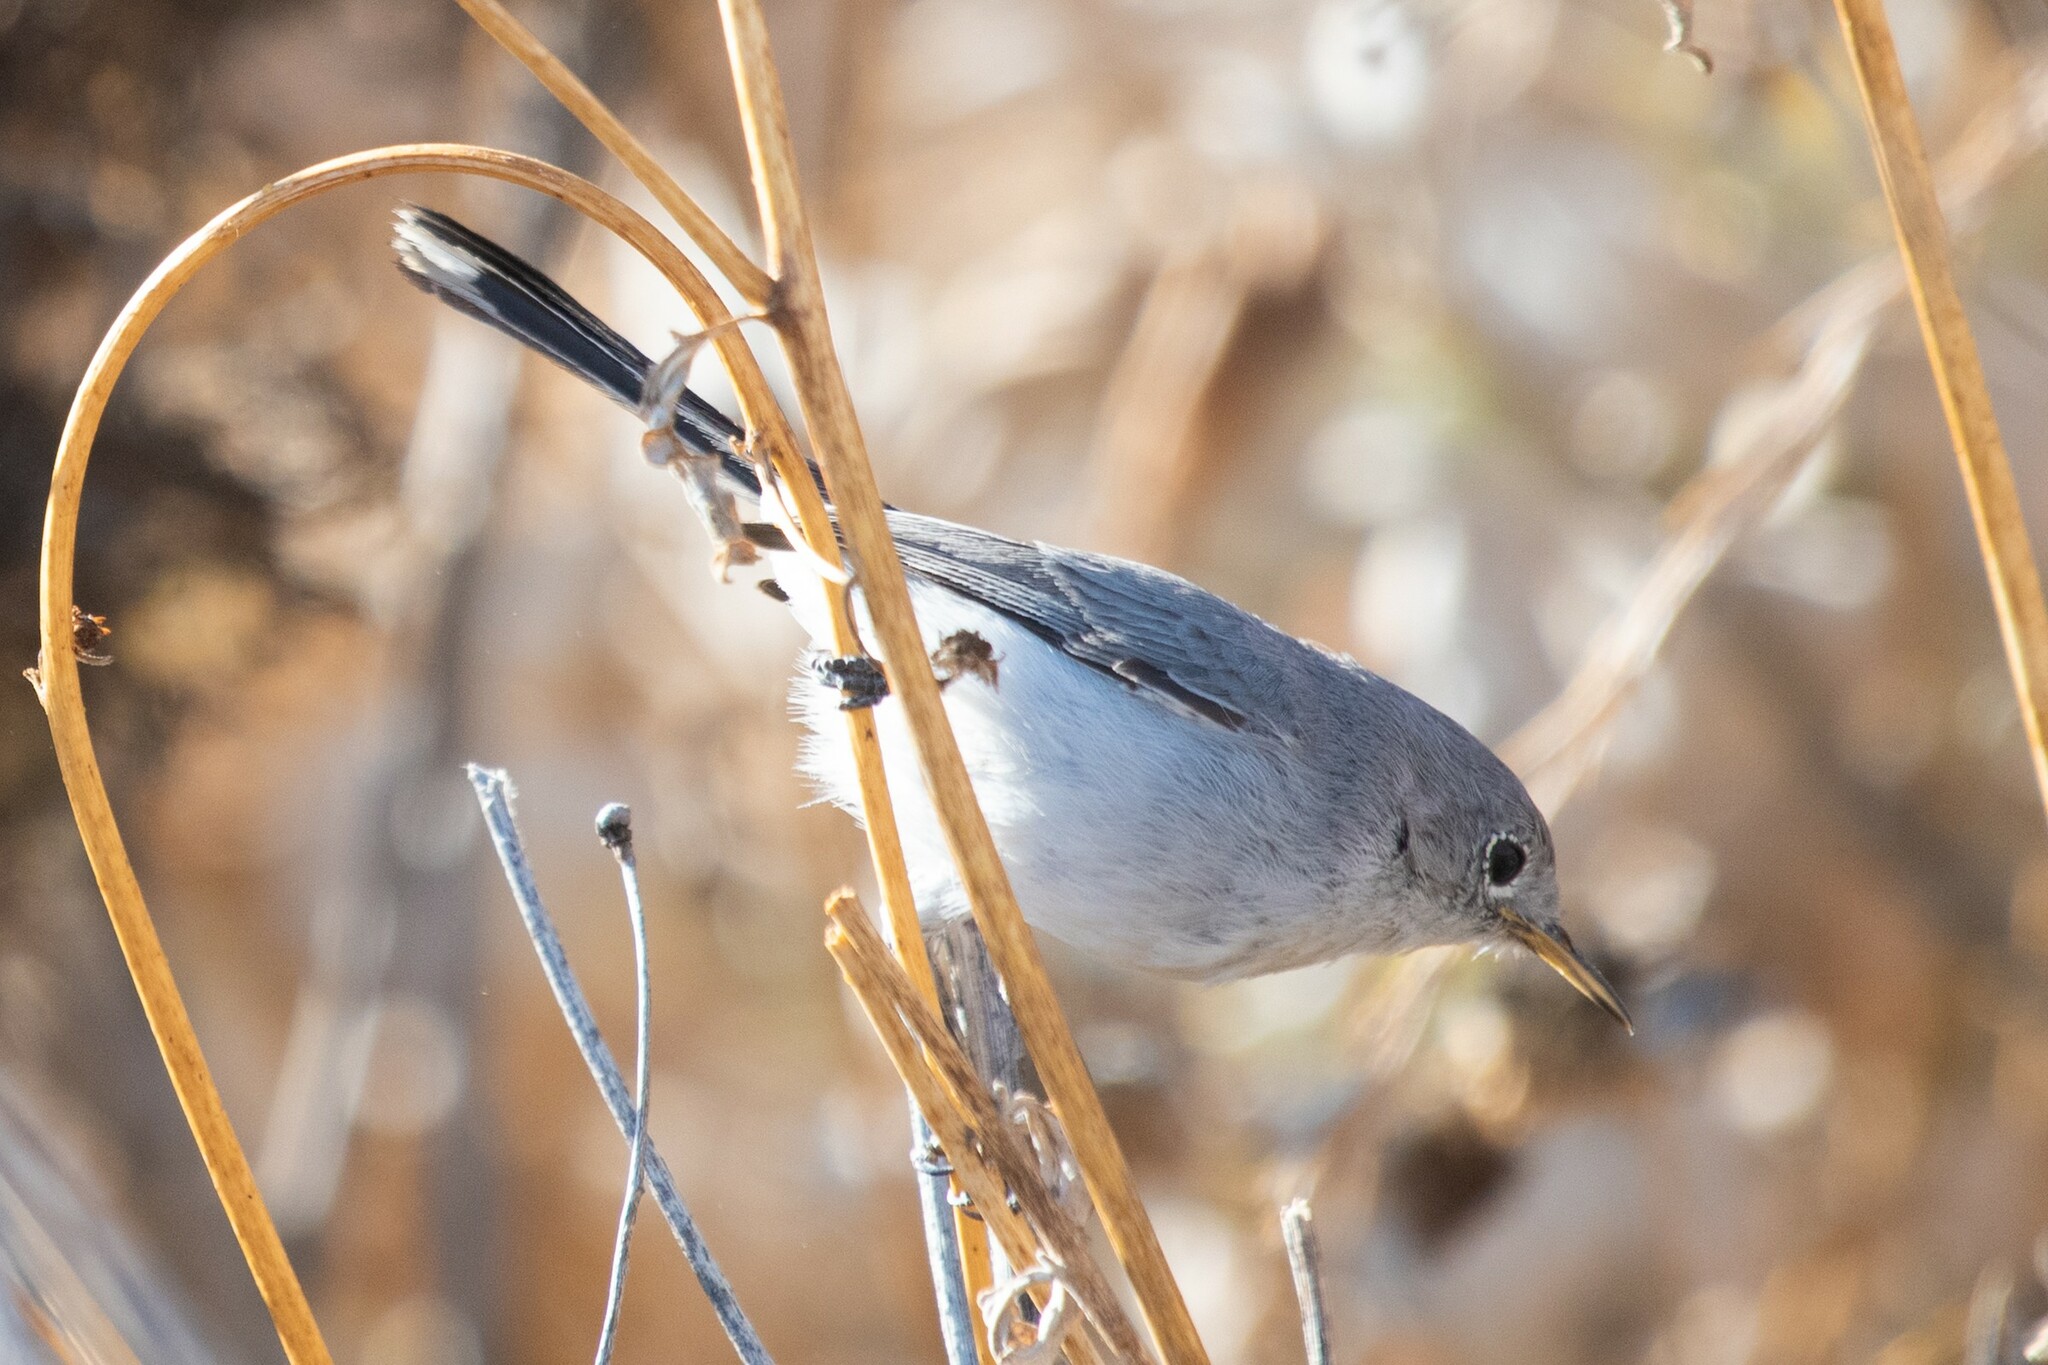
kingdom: Animalia
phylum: Chordata
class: Aves
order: Passeriformes
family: Polioptilidae
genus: Polioptila
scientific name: Polioptila californica
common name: California gnatcatcher
